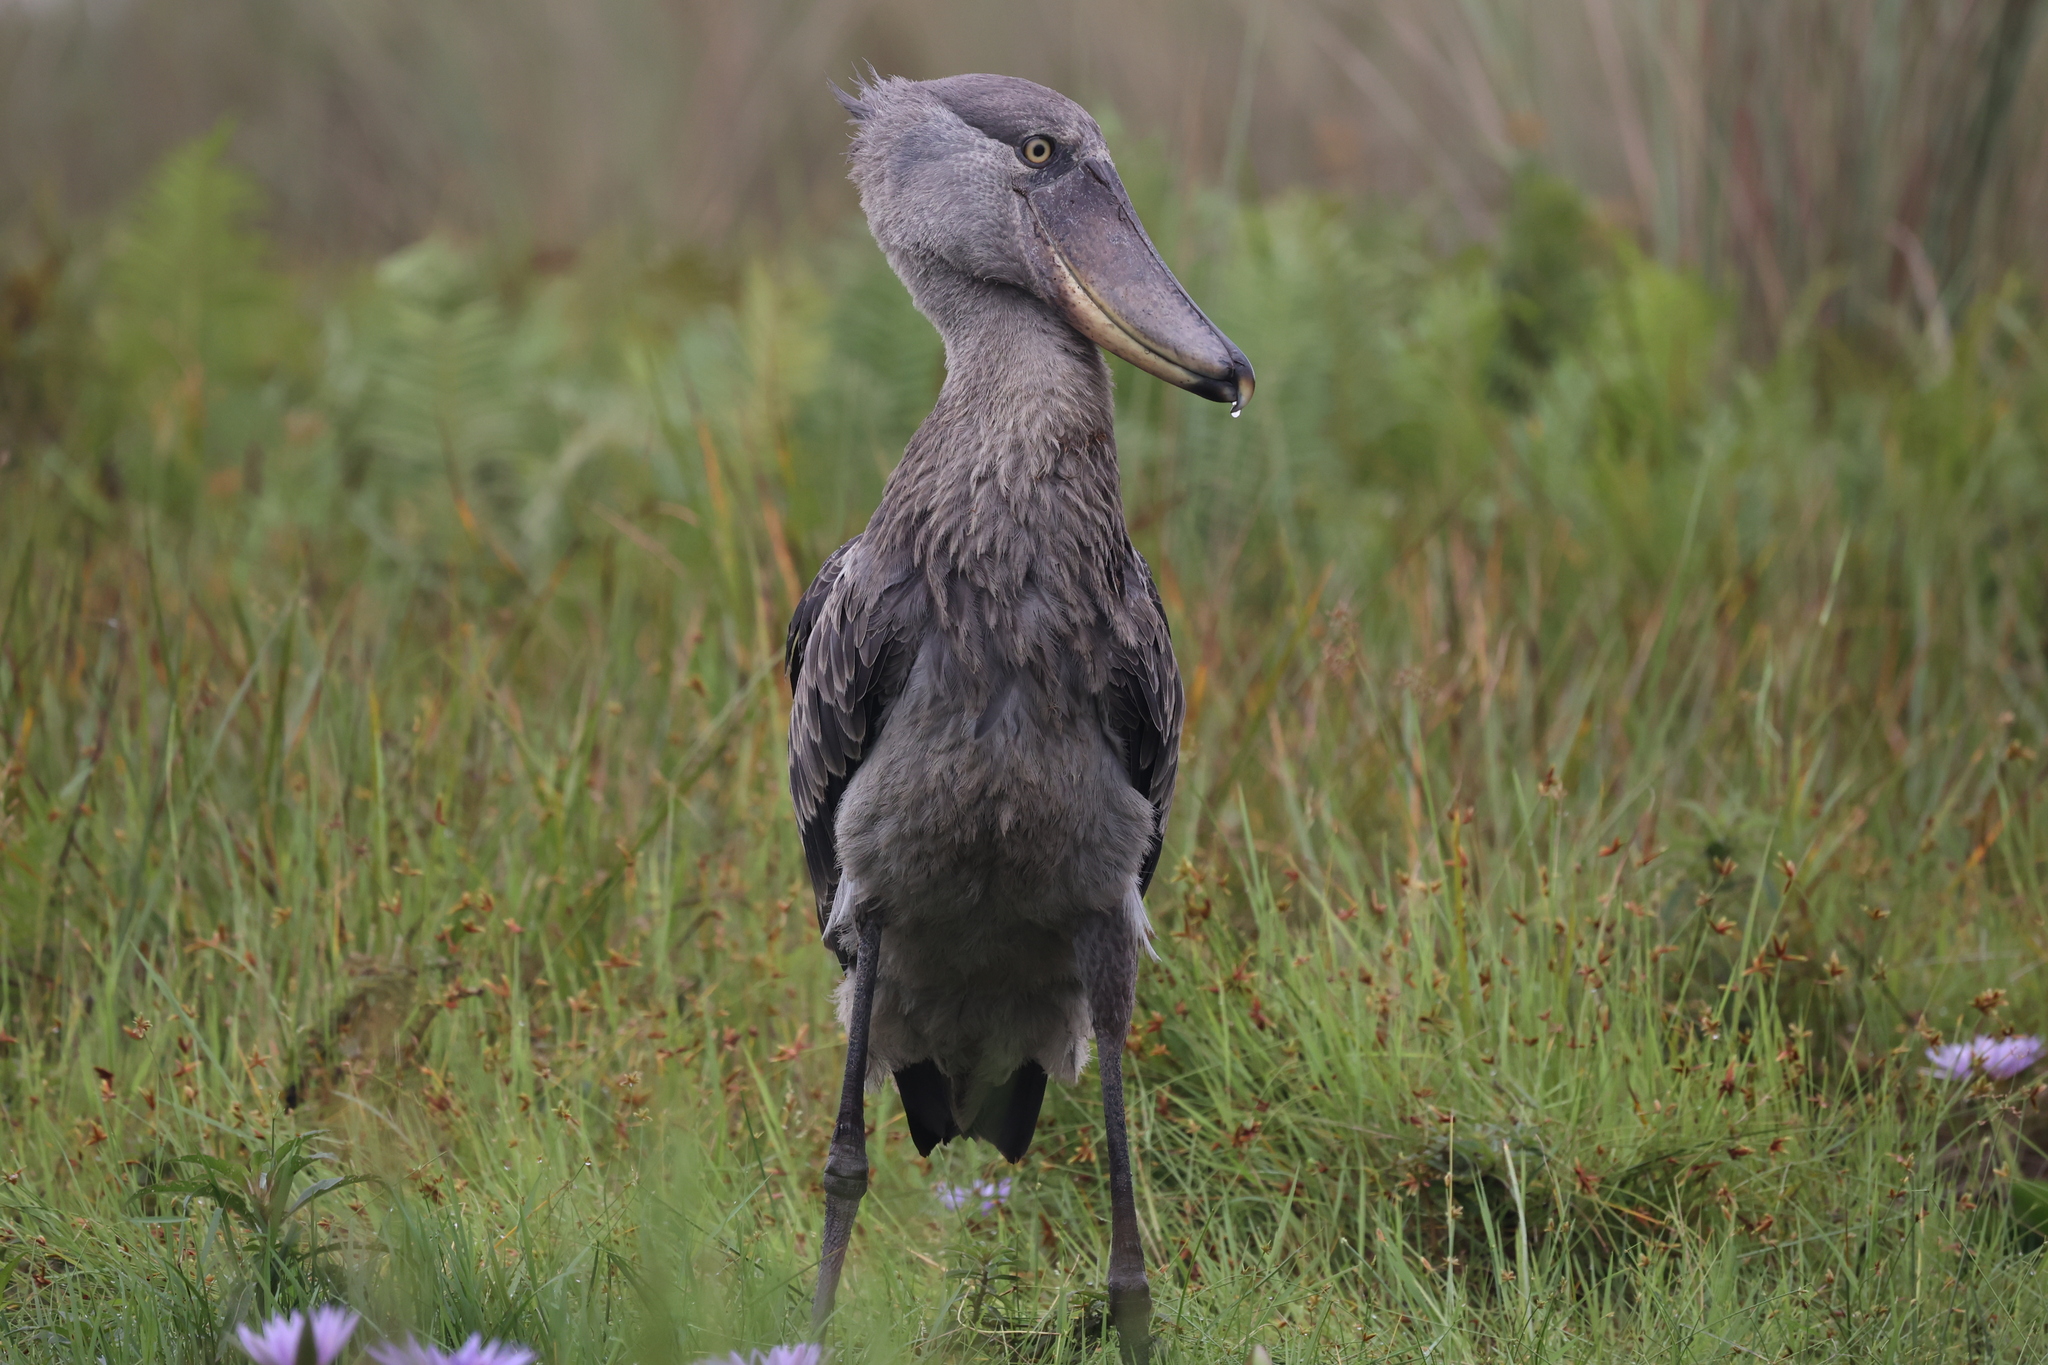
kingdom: Animalia
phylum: Chordata
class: Aves
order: Pelecaniformes
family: Balaenicipitidae
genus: Balaeniceps
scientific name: Balaeniceps rex
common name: Shoebill
